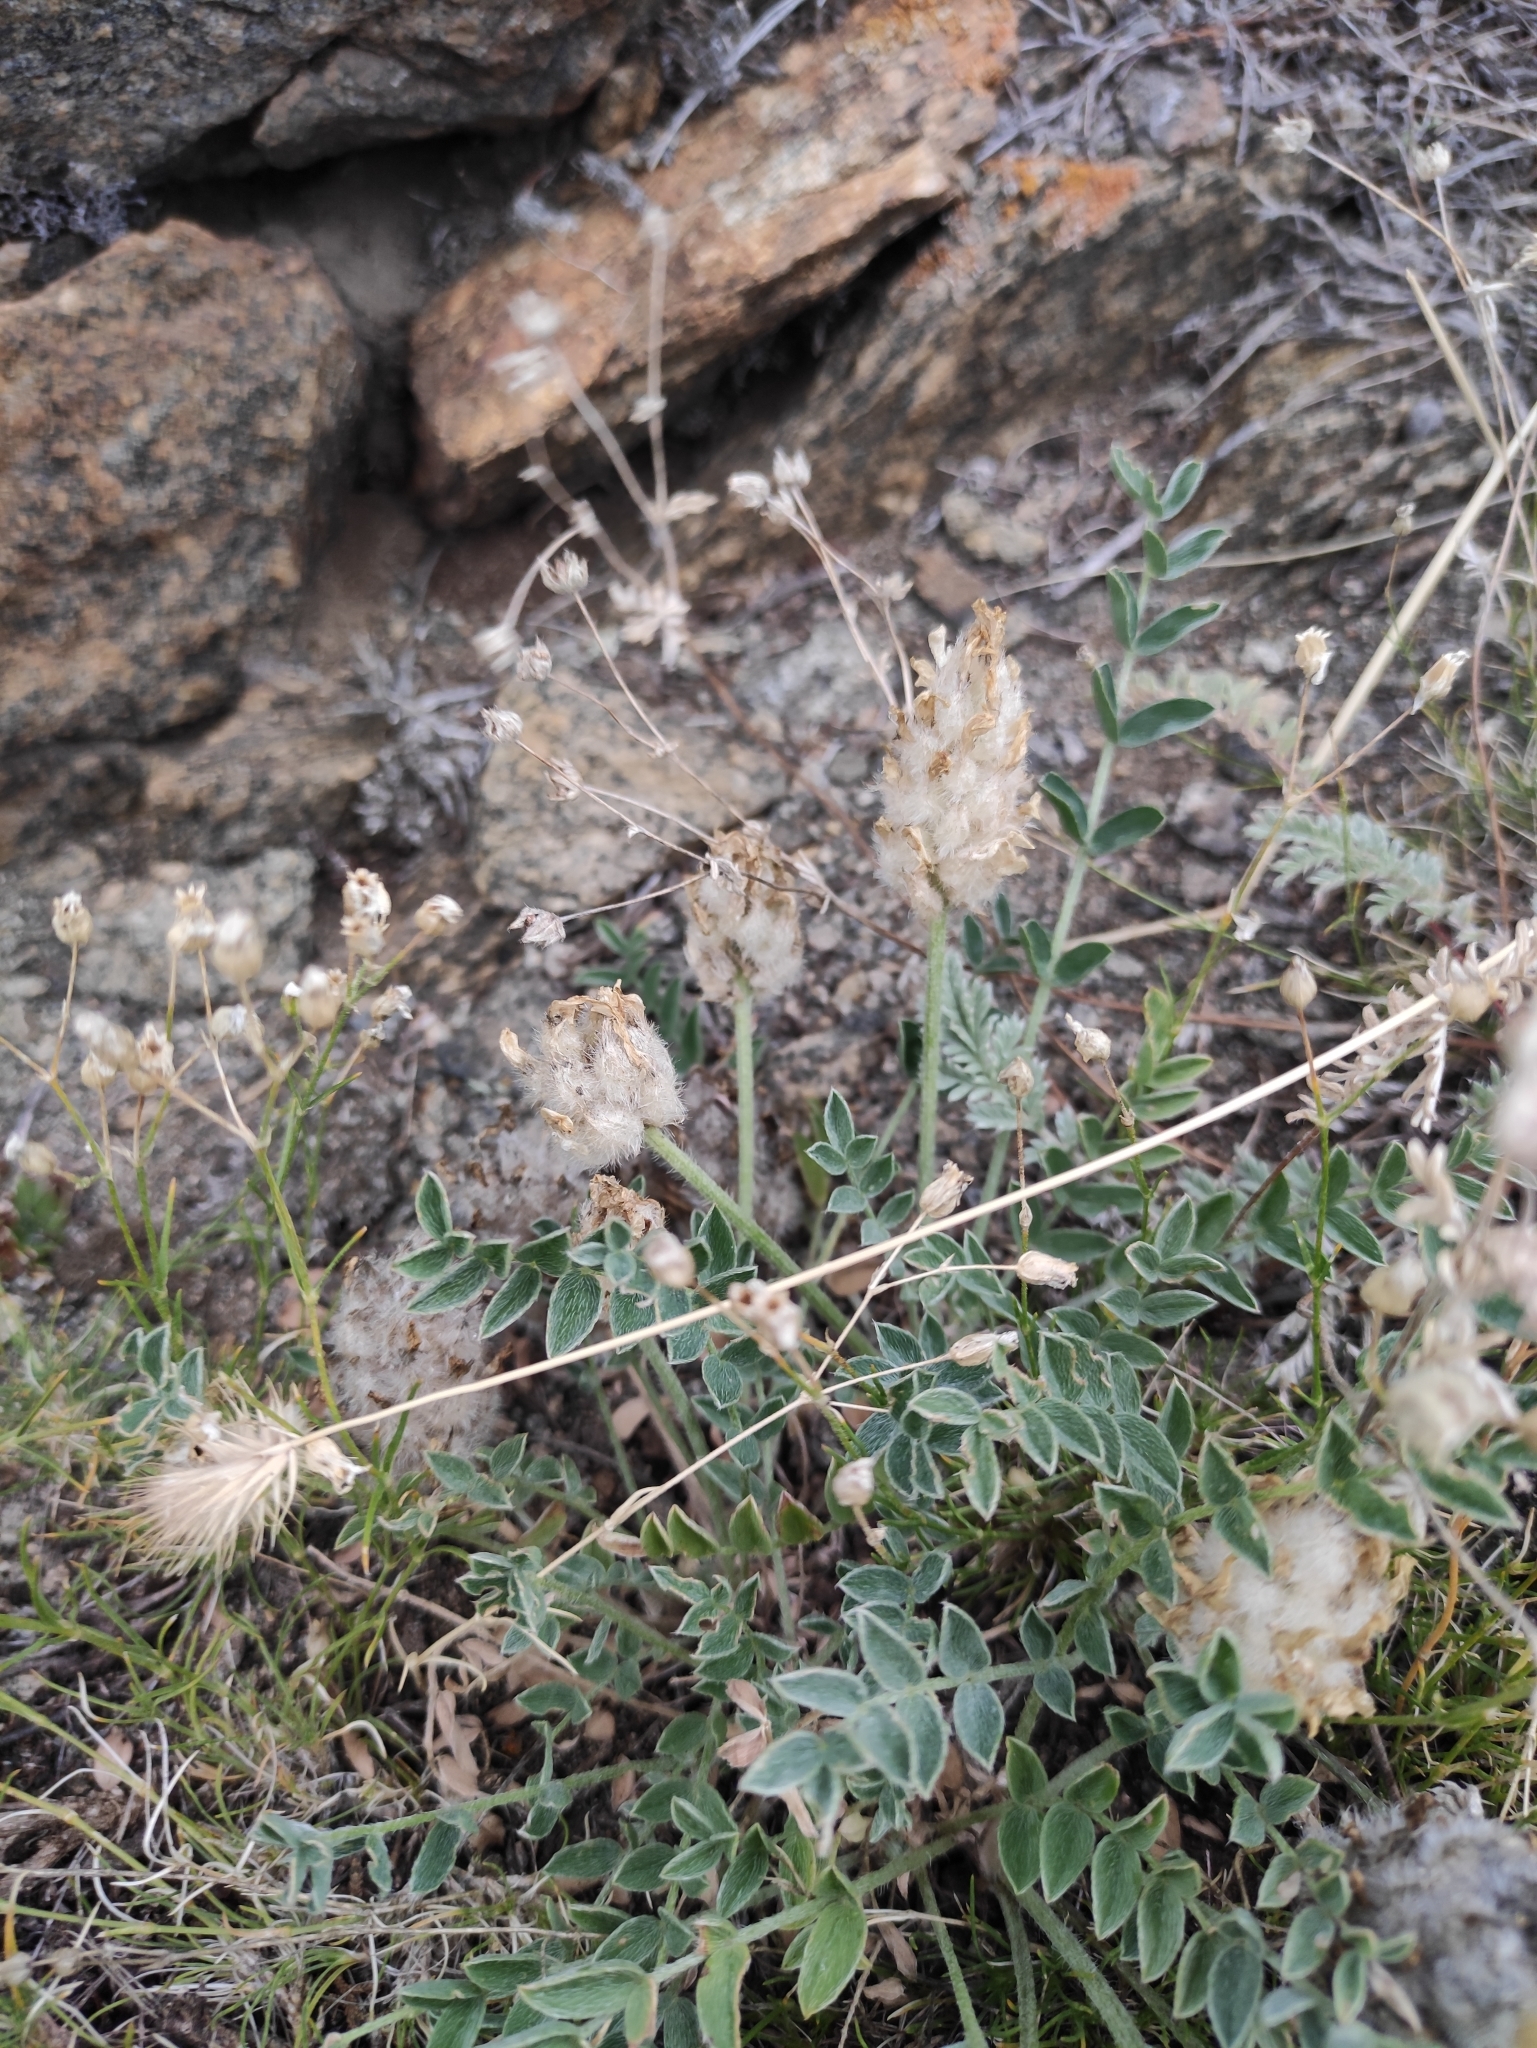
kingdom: Plantae
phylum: Tracheophyta
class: Magnoliopsida
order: Fabales
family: Fabaceae
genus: Astragalus
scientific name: Astragalus lupulinus
